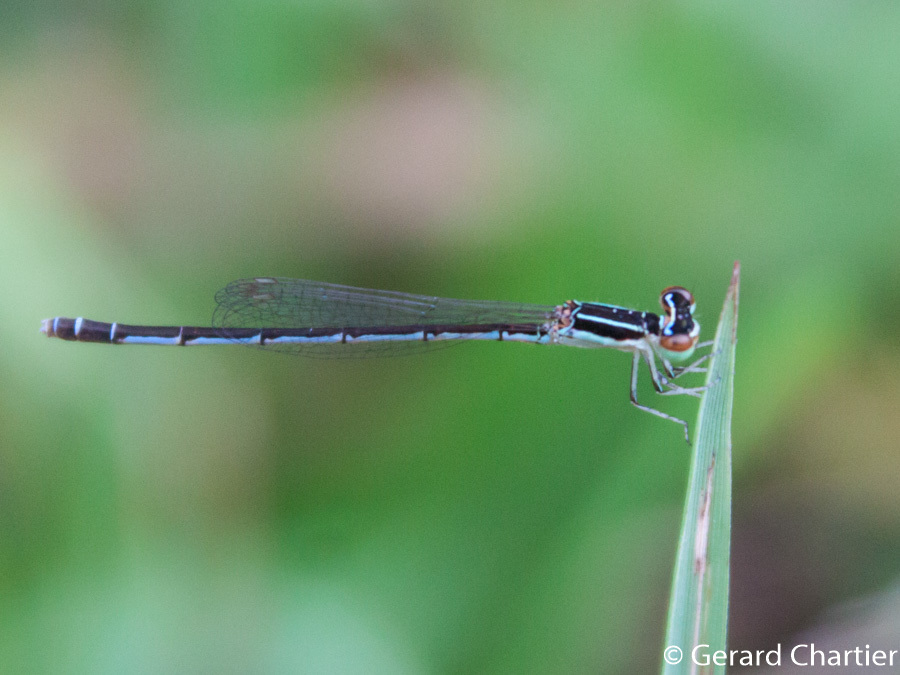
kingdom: Animalia
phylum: Arthropoda
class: Insecta
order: Odonata
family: Coenagrionidae
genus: Agriocnemis
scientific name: Agriocnemis nana
